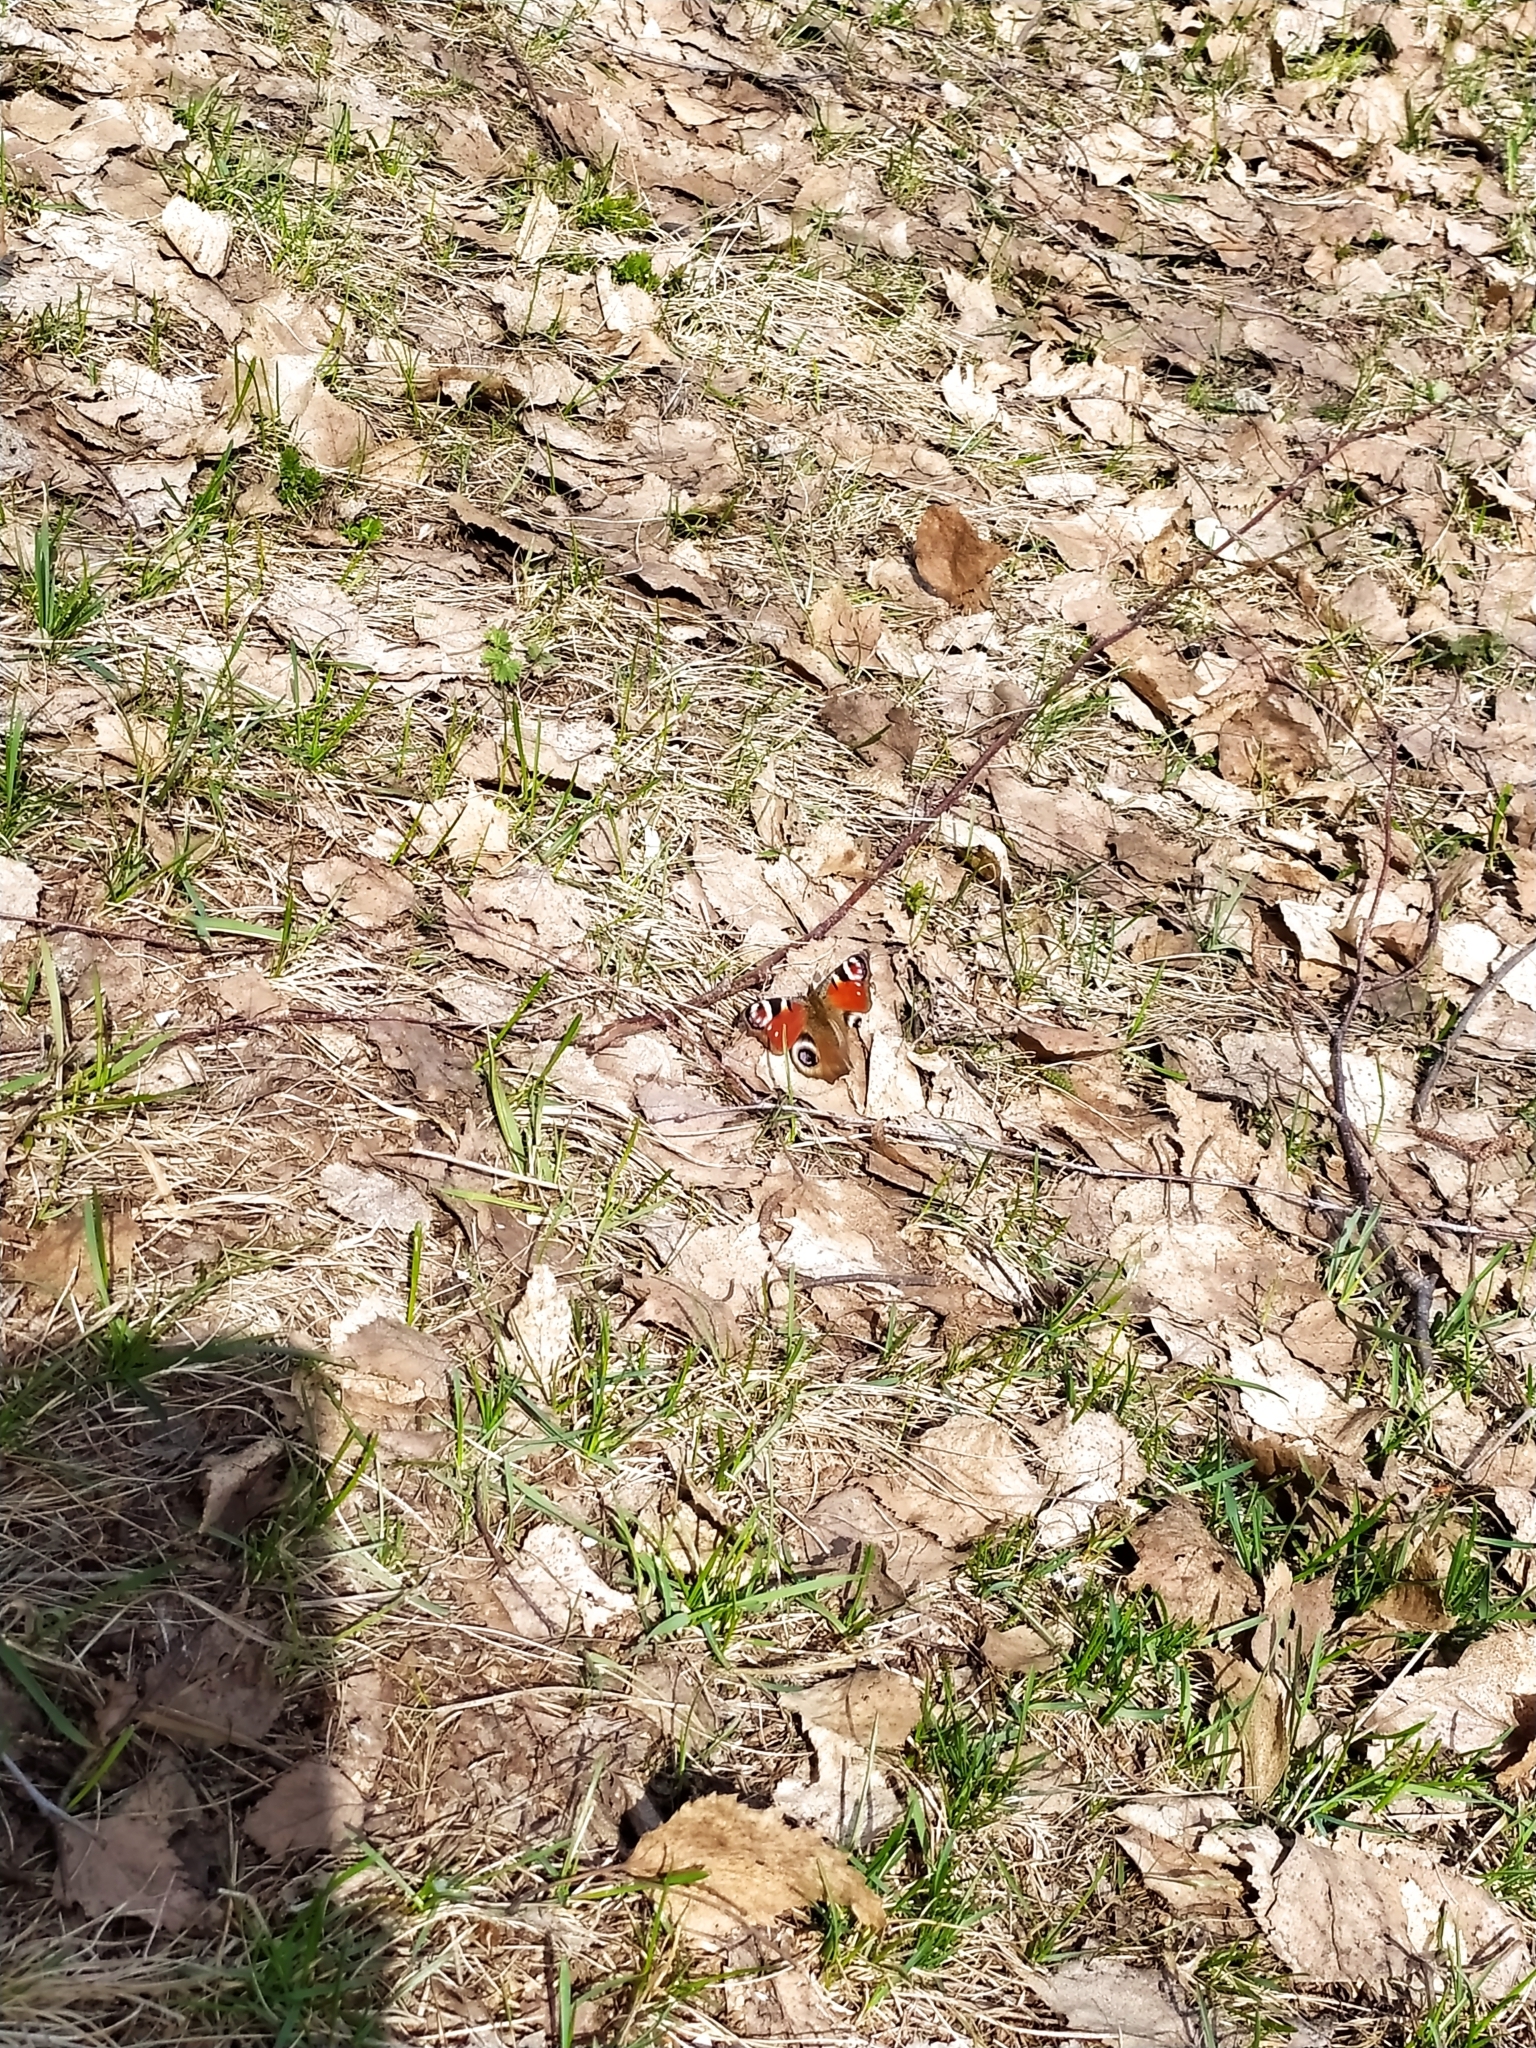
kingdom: Animalia
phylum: Arthropoda
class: Insecta
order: Lepidoptera
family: Nymphalidae
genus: Aglais
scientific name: Aglais io
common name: Peacock
